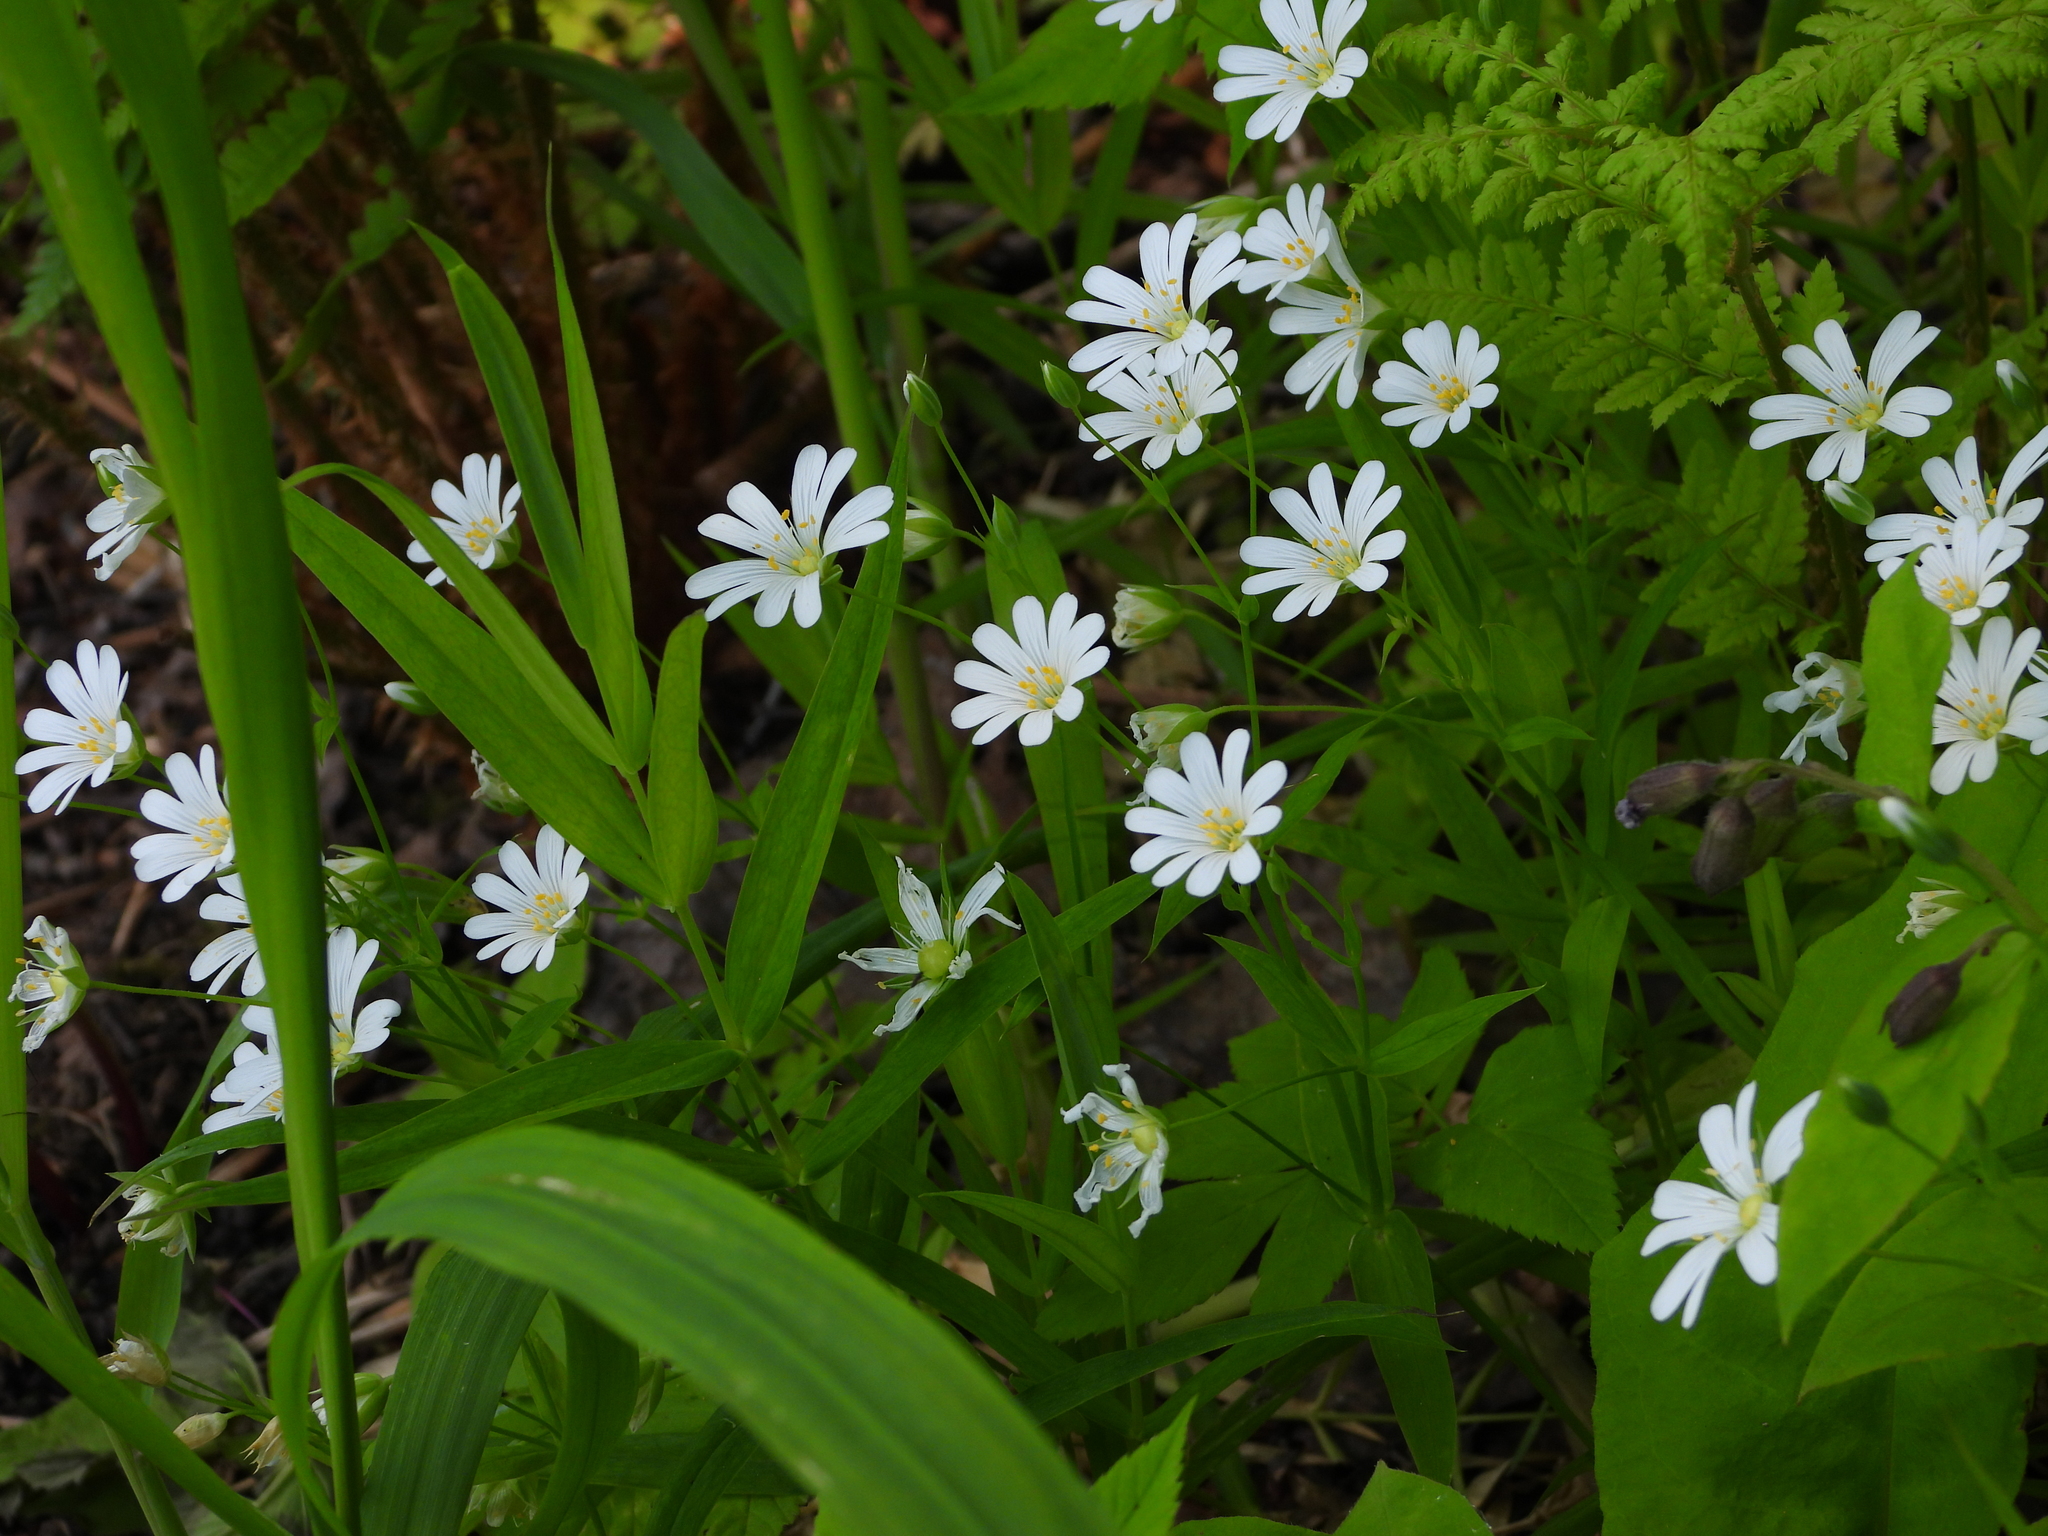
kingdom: Plantae
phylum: Tracheophyta
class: Magnoliopsida
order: Caryophyllales
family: Caryophyllaceae
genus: Rabelera
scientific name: Rabelera holostea
